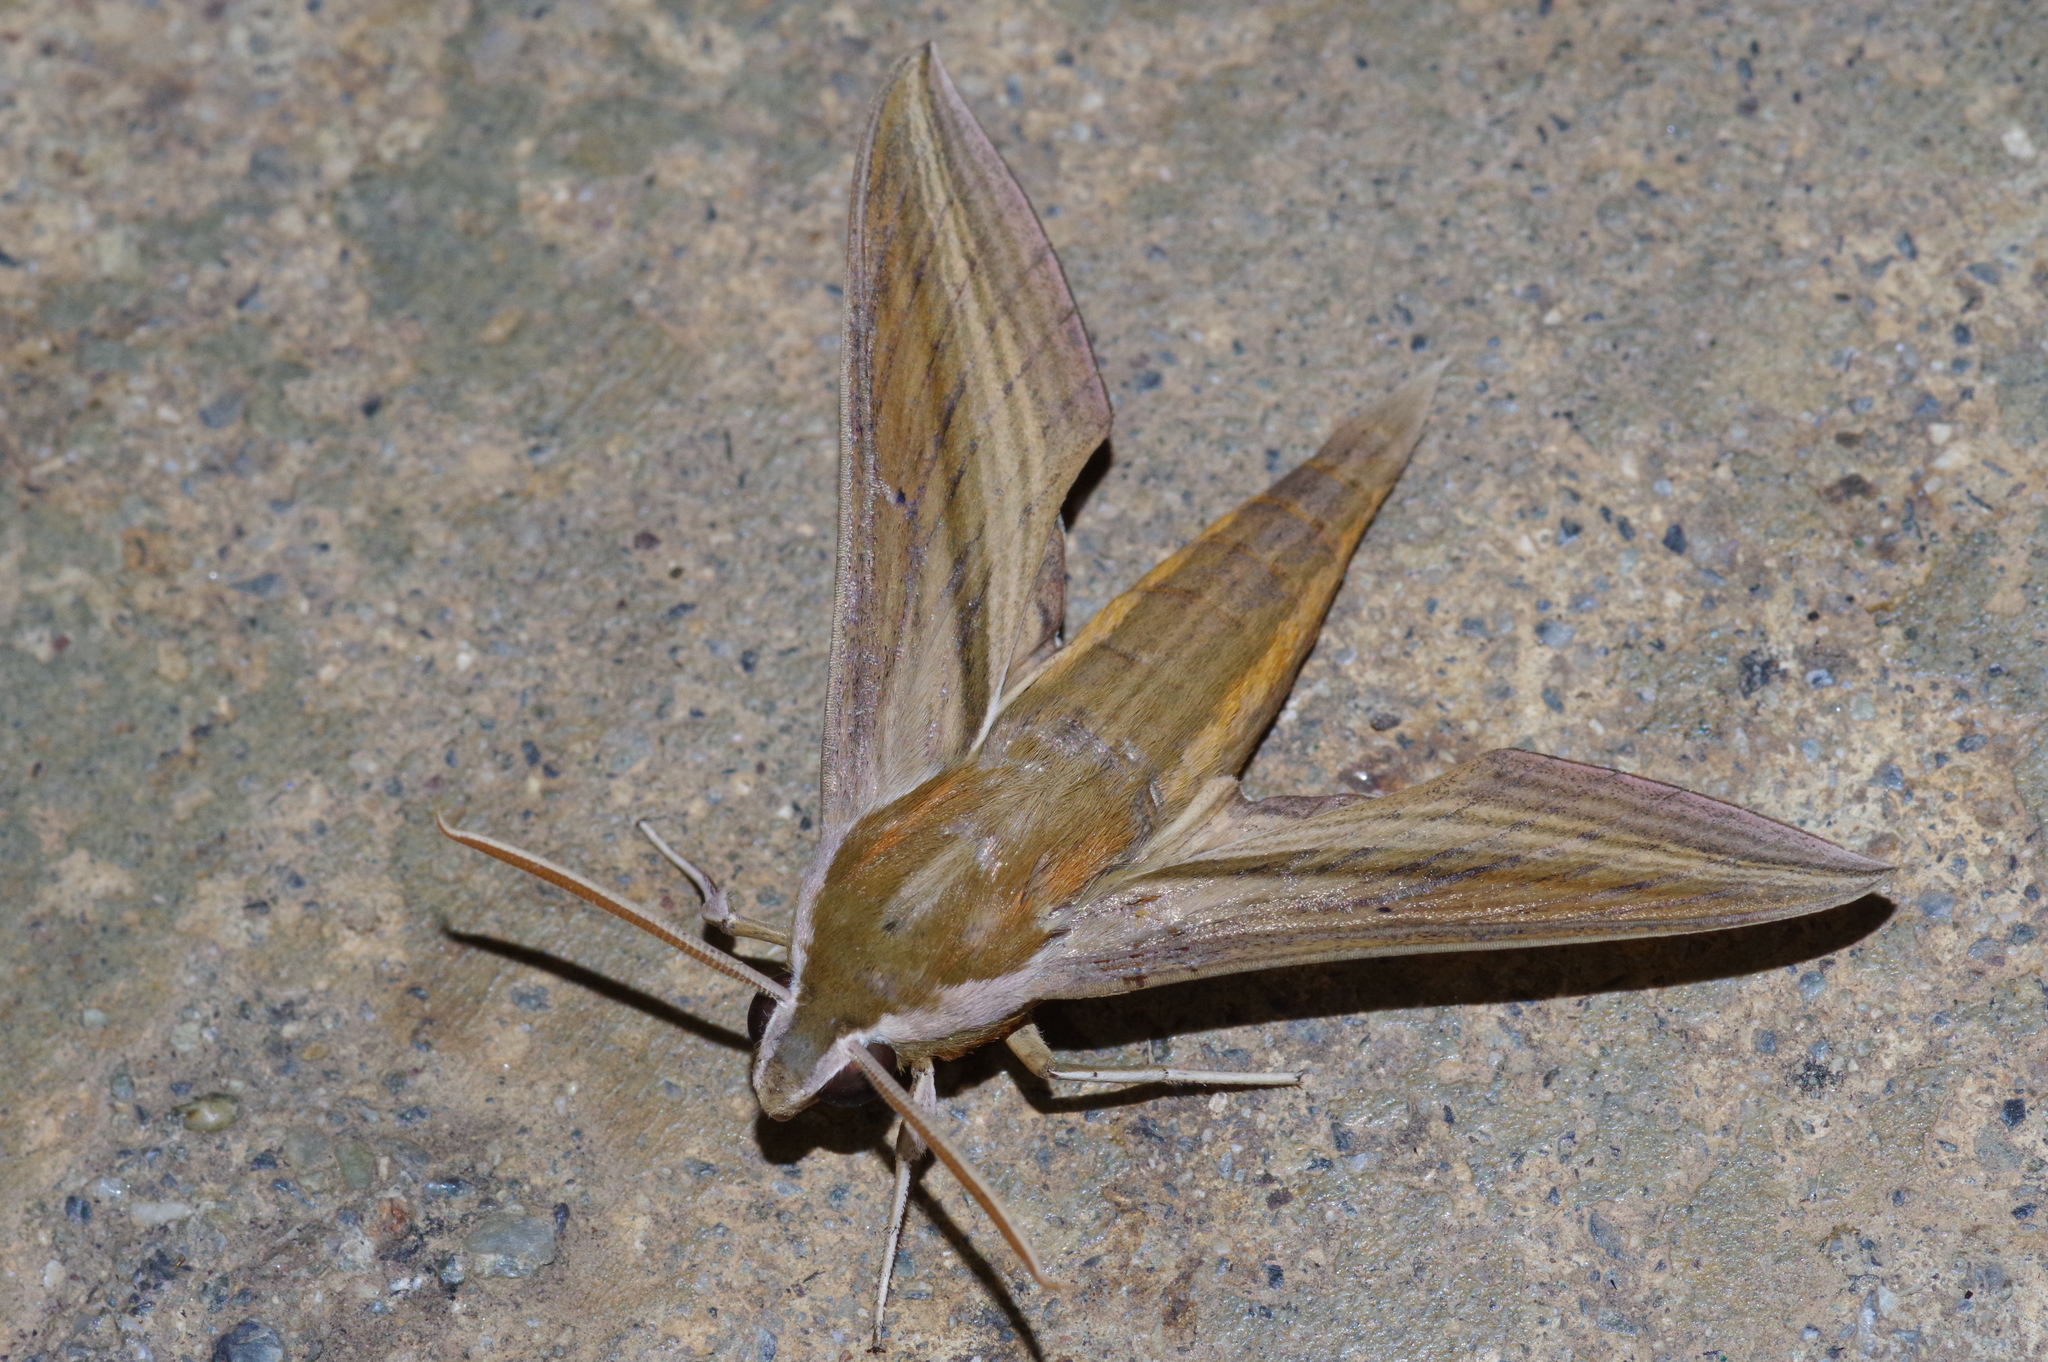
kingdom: Animalia
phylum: Arthropoda
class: Insecta
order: Lepidoptera
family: Sphingidae
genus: Theretra
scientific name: Theretra japonica
